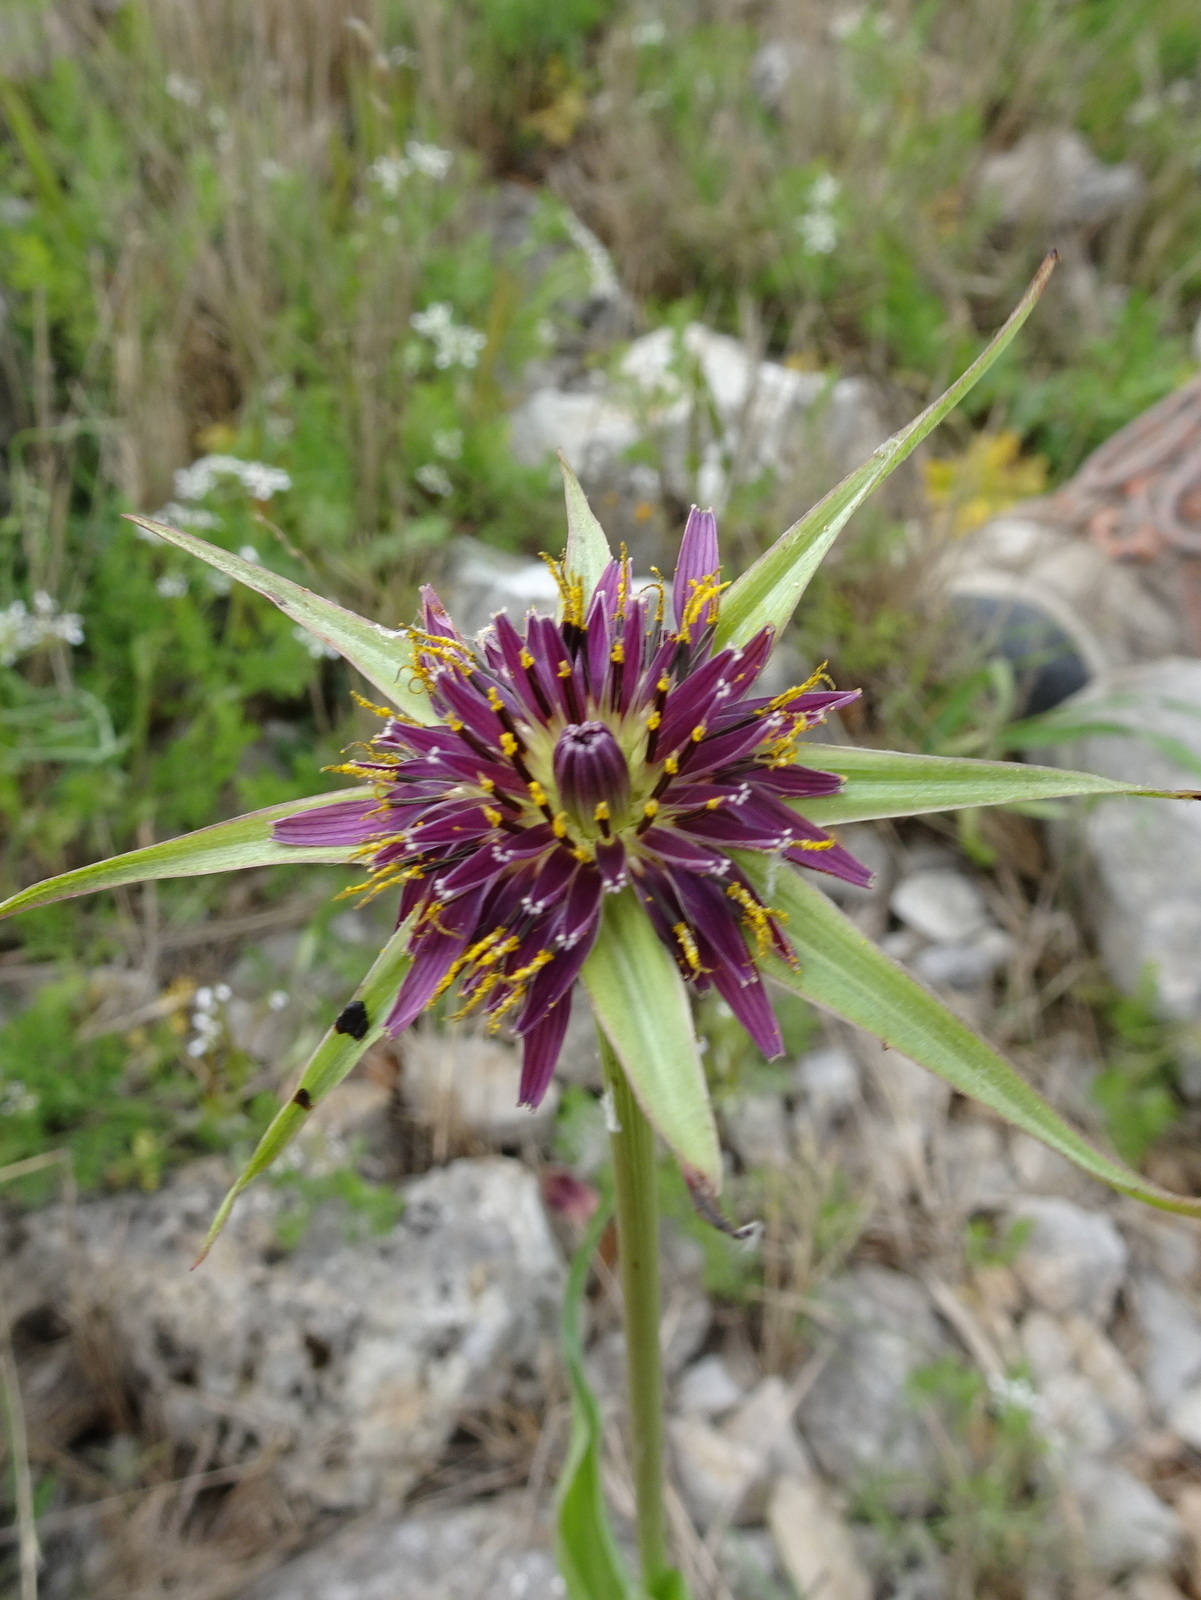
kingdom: Plantae
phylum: Tracheophyta
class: Magnoliopsida
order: Asterales
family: Asteraceae
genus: Tragopogon
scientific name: Tragopogon porrifolius
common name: Salsify
